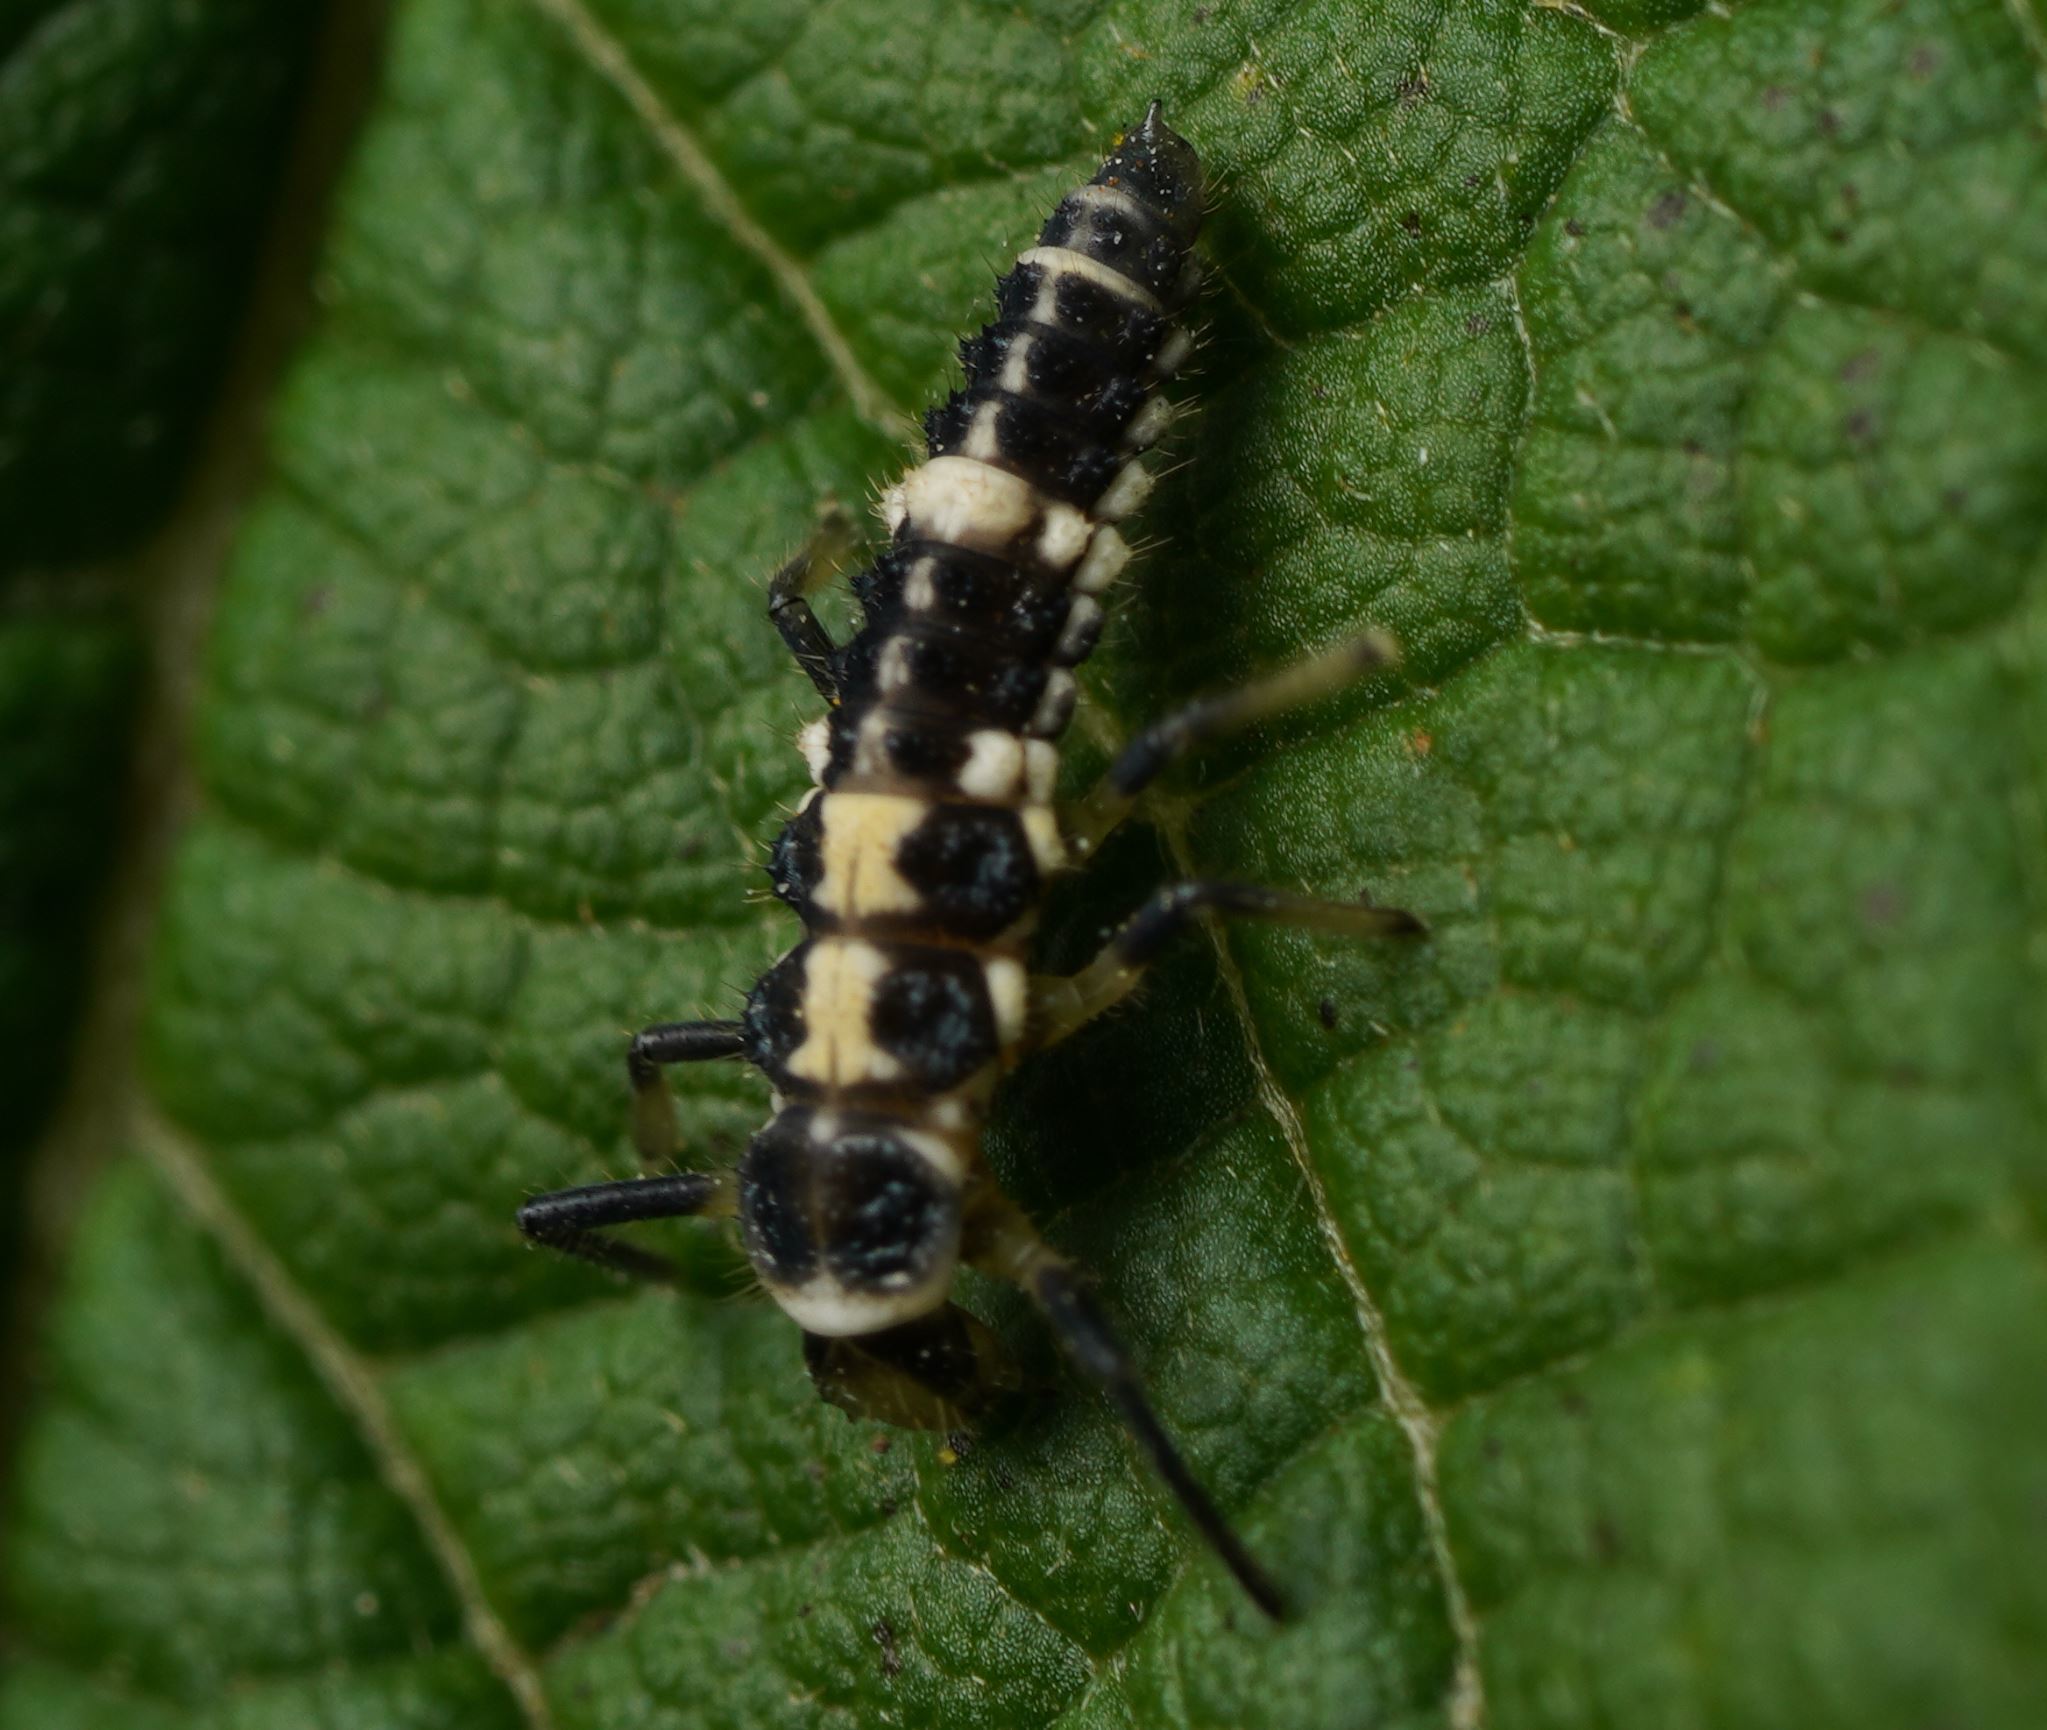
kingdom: Animalia
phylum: Arthropoda
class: Insecta
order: Coleoptera
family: Coccinellidae
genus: Propylaea
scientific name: Propylaea quatuordecimpunctata
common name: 14-spotted ladybird beetle
